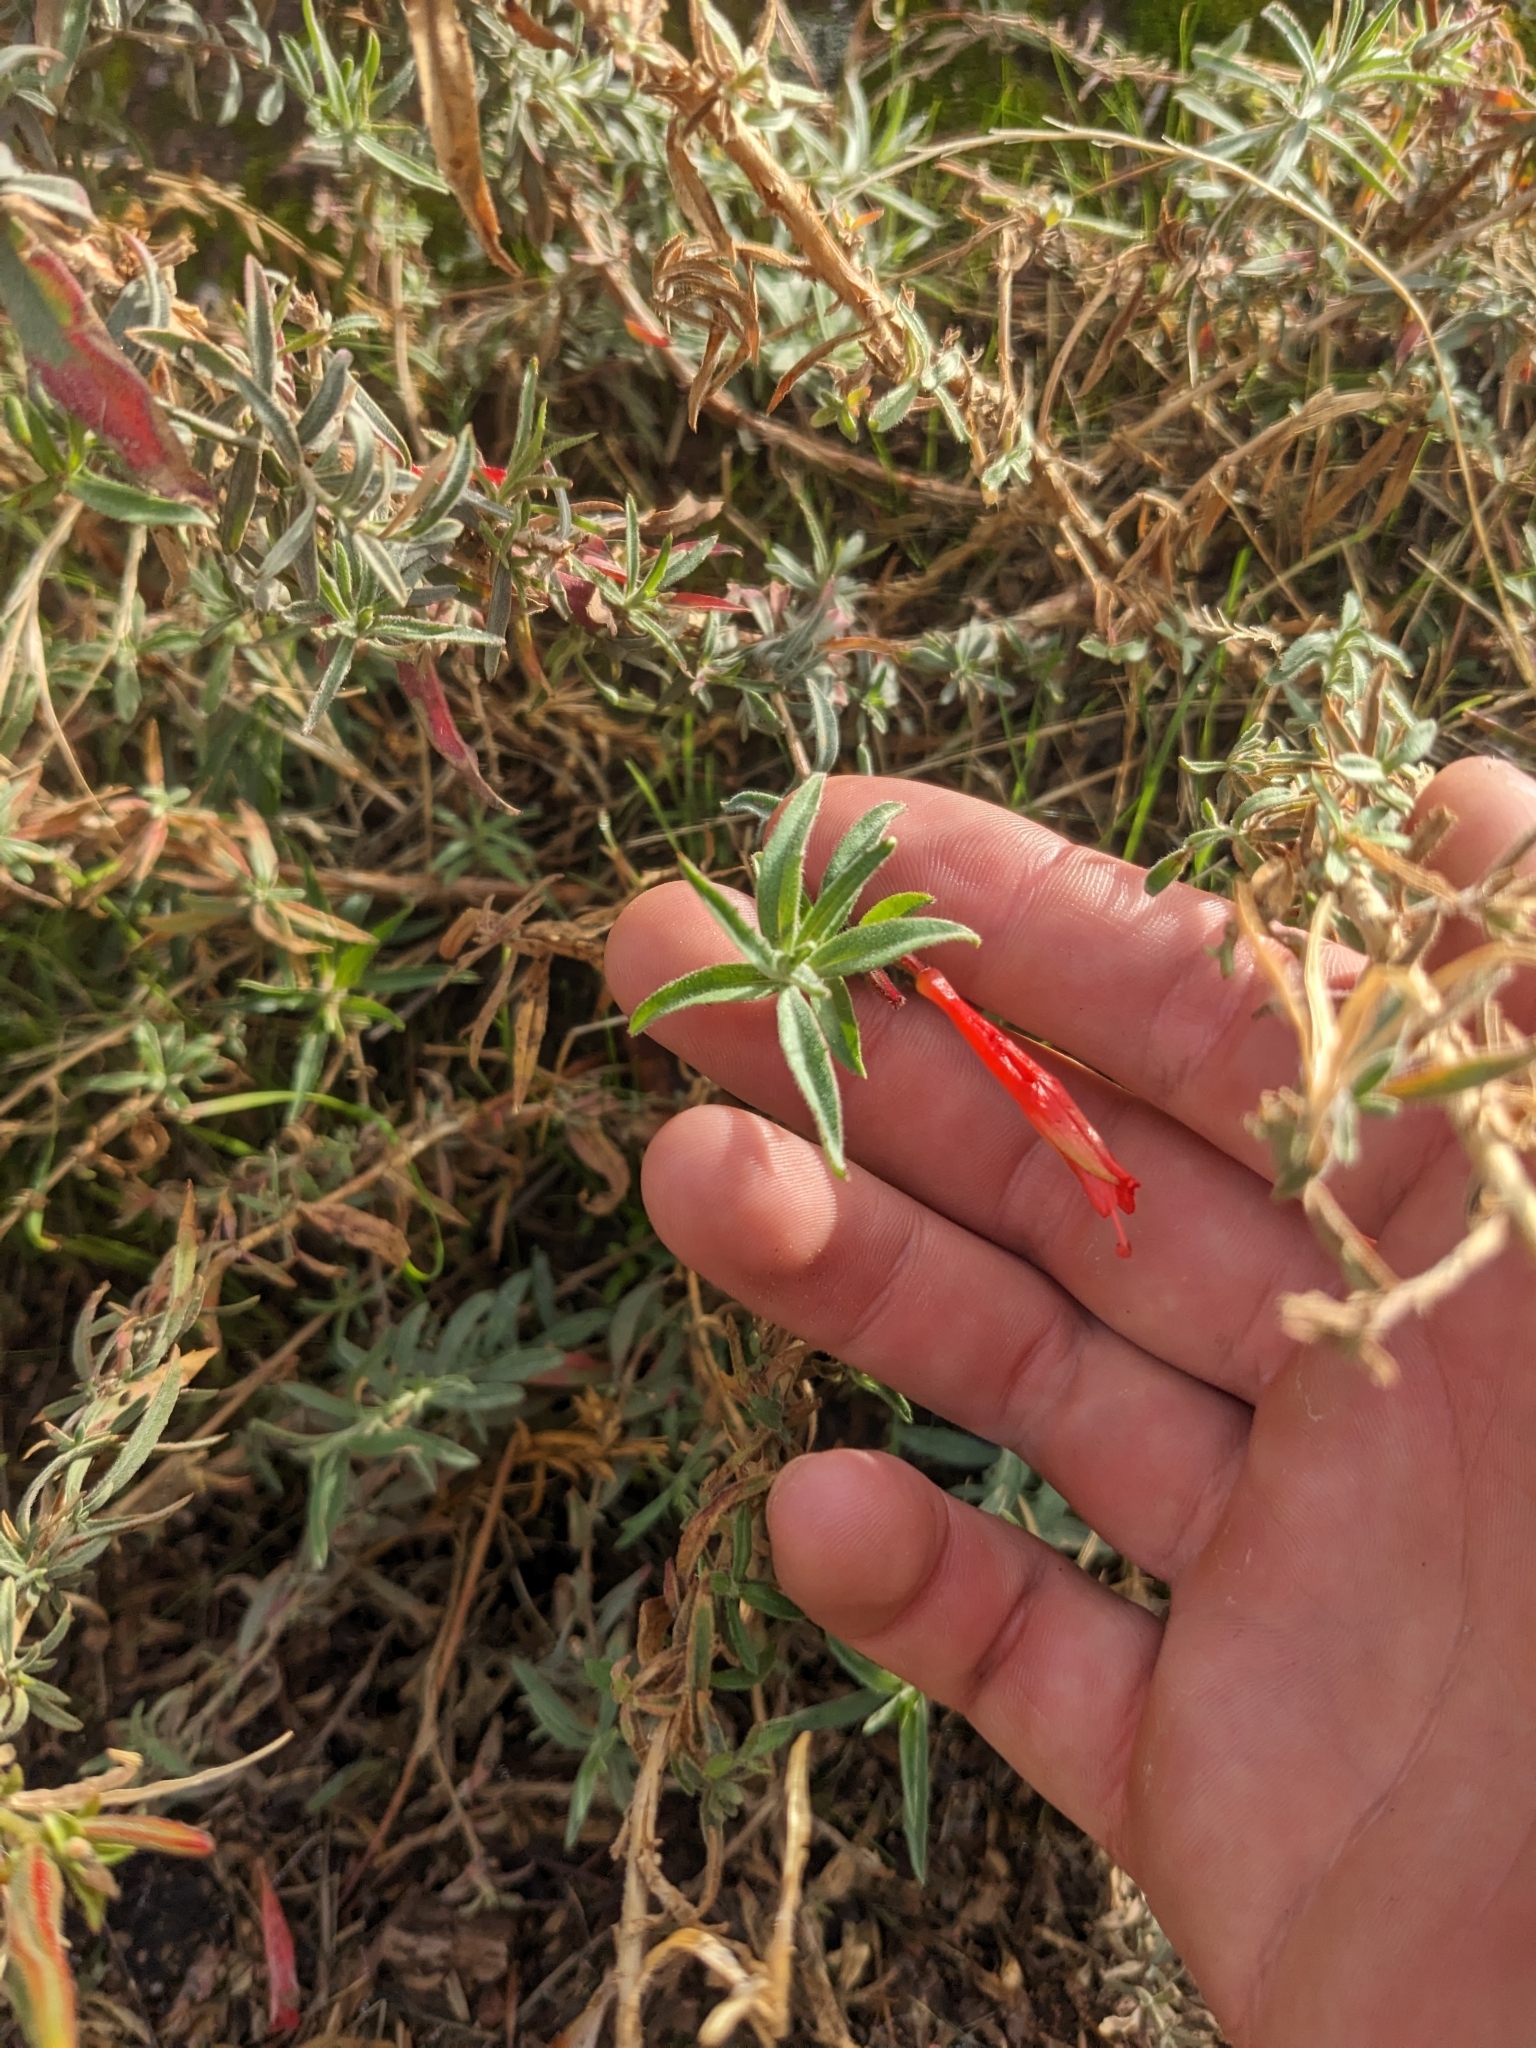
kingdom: Plantae
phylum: Tracheophyta
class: Magnoliopsida
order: Myrtales
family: Onagraceae
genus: Epilobium
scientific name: Epilobium canum
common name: California-fuchsia
